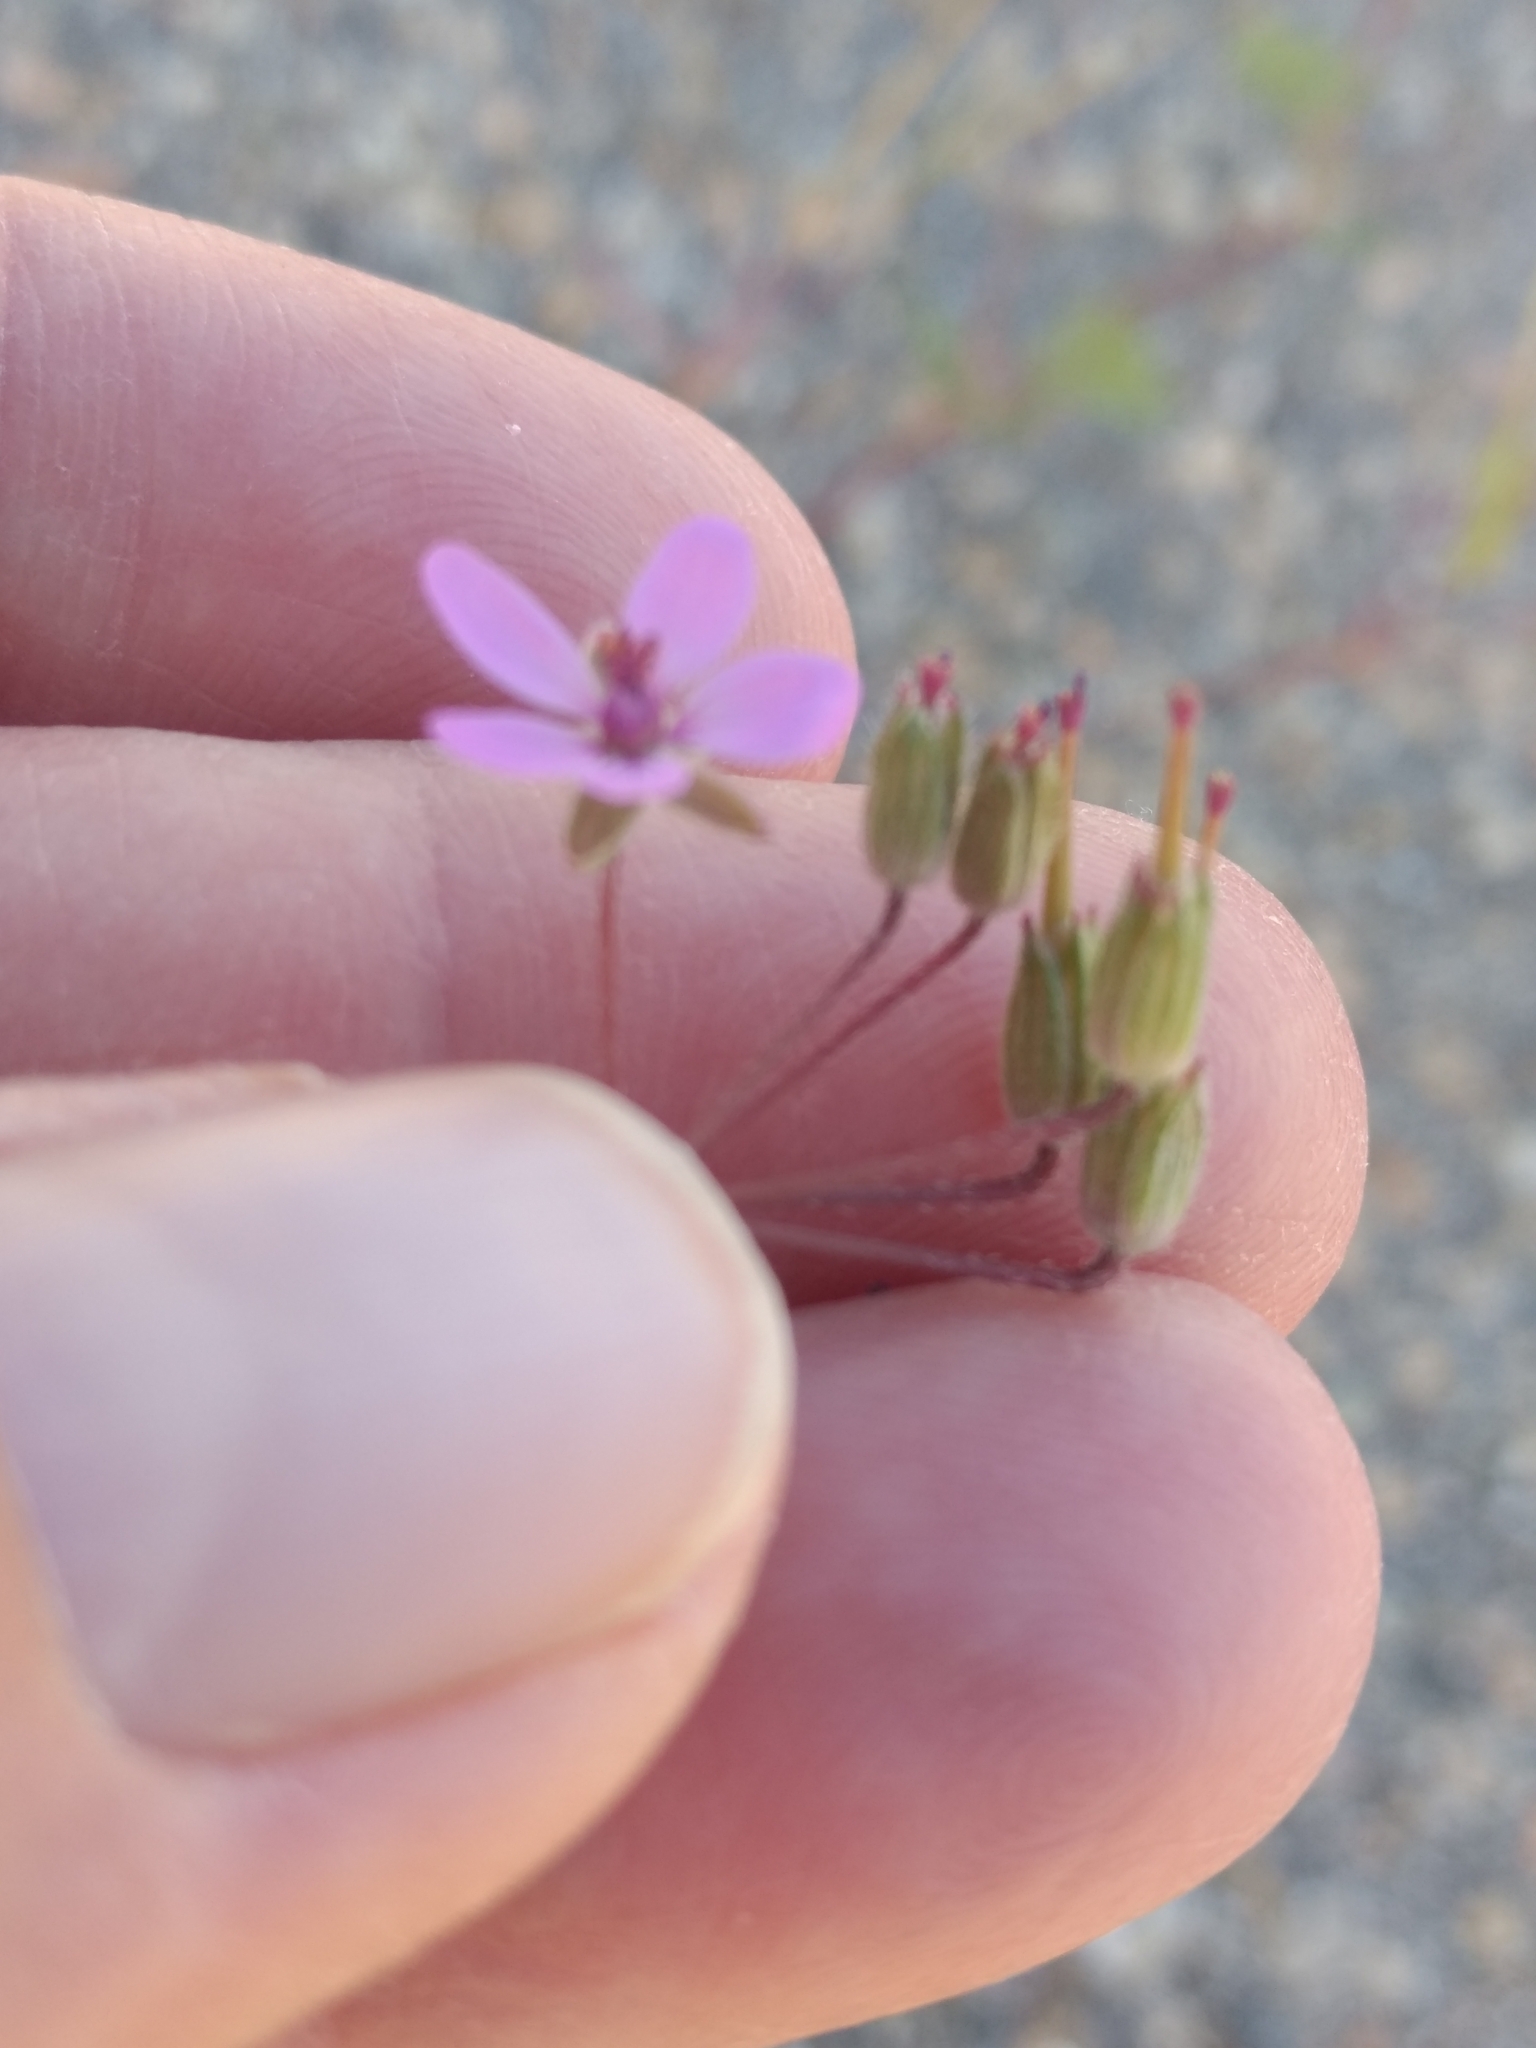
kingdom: Plantae
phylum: Tracheophyta
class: Magnoliopsida
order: Geraniales
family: Geraniaceae
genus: Erodium
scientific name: Erodium cicutarium
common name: Common stork's-bill
